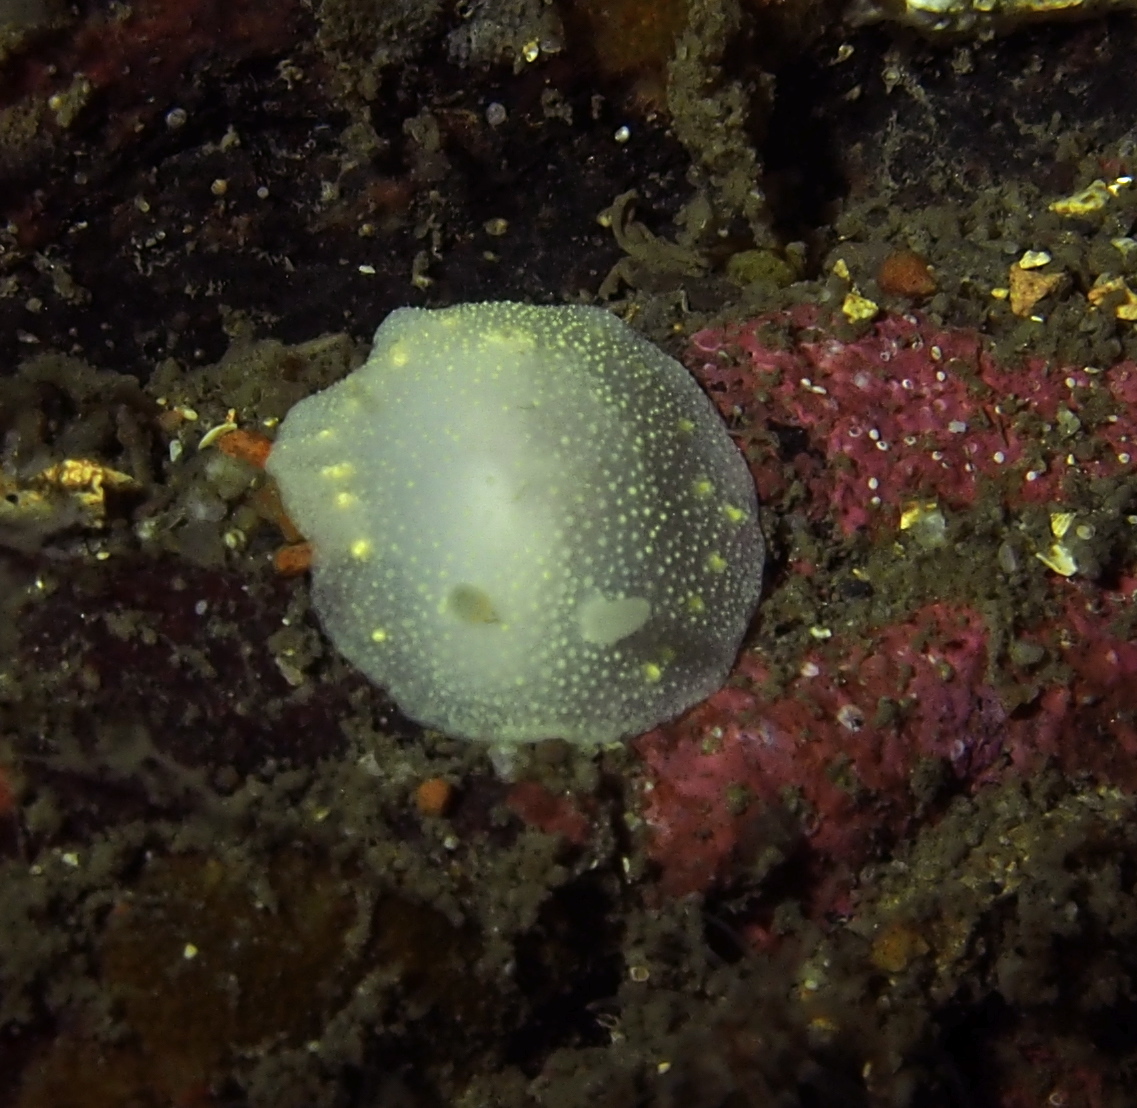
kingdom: Animalia
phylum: Mollusca
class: Gastropoda
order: Nudibranchia
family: Cadlinidae
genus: Cadlina
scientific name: Cadlina laevis
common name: White atlantic cadlina
